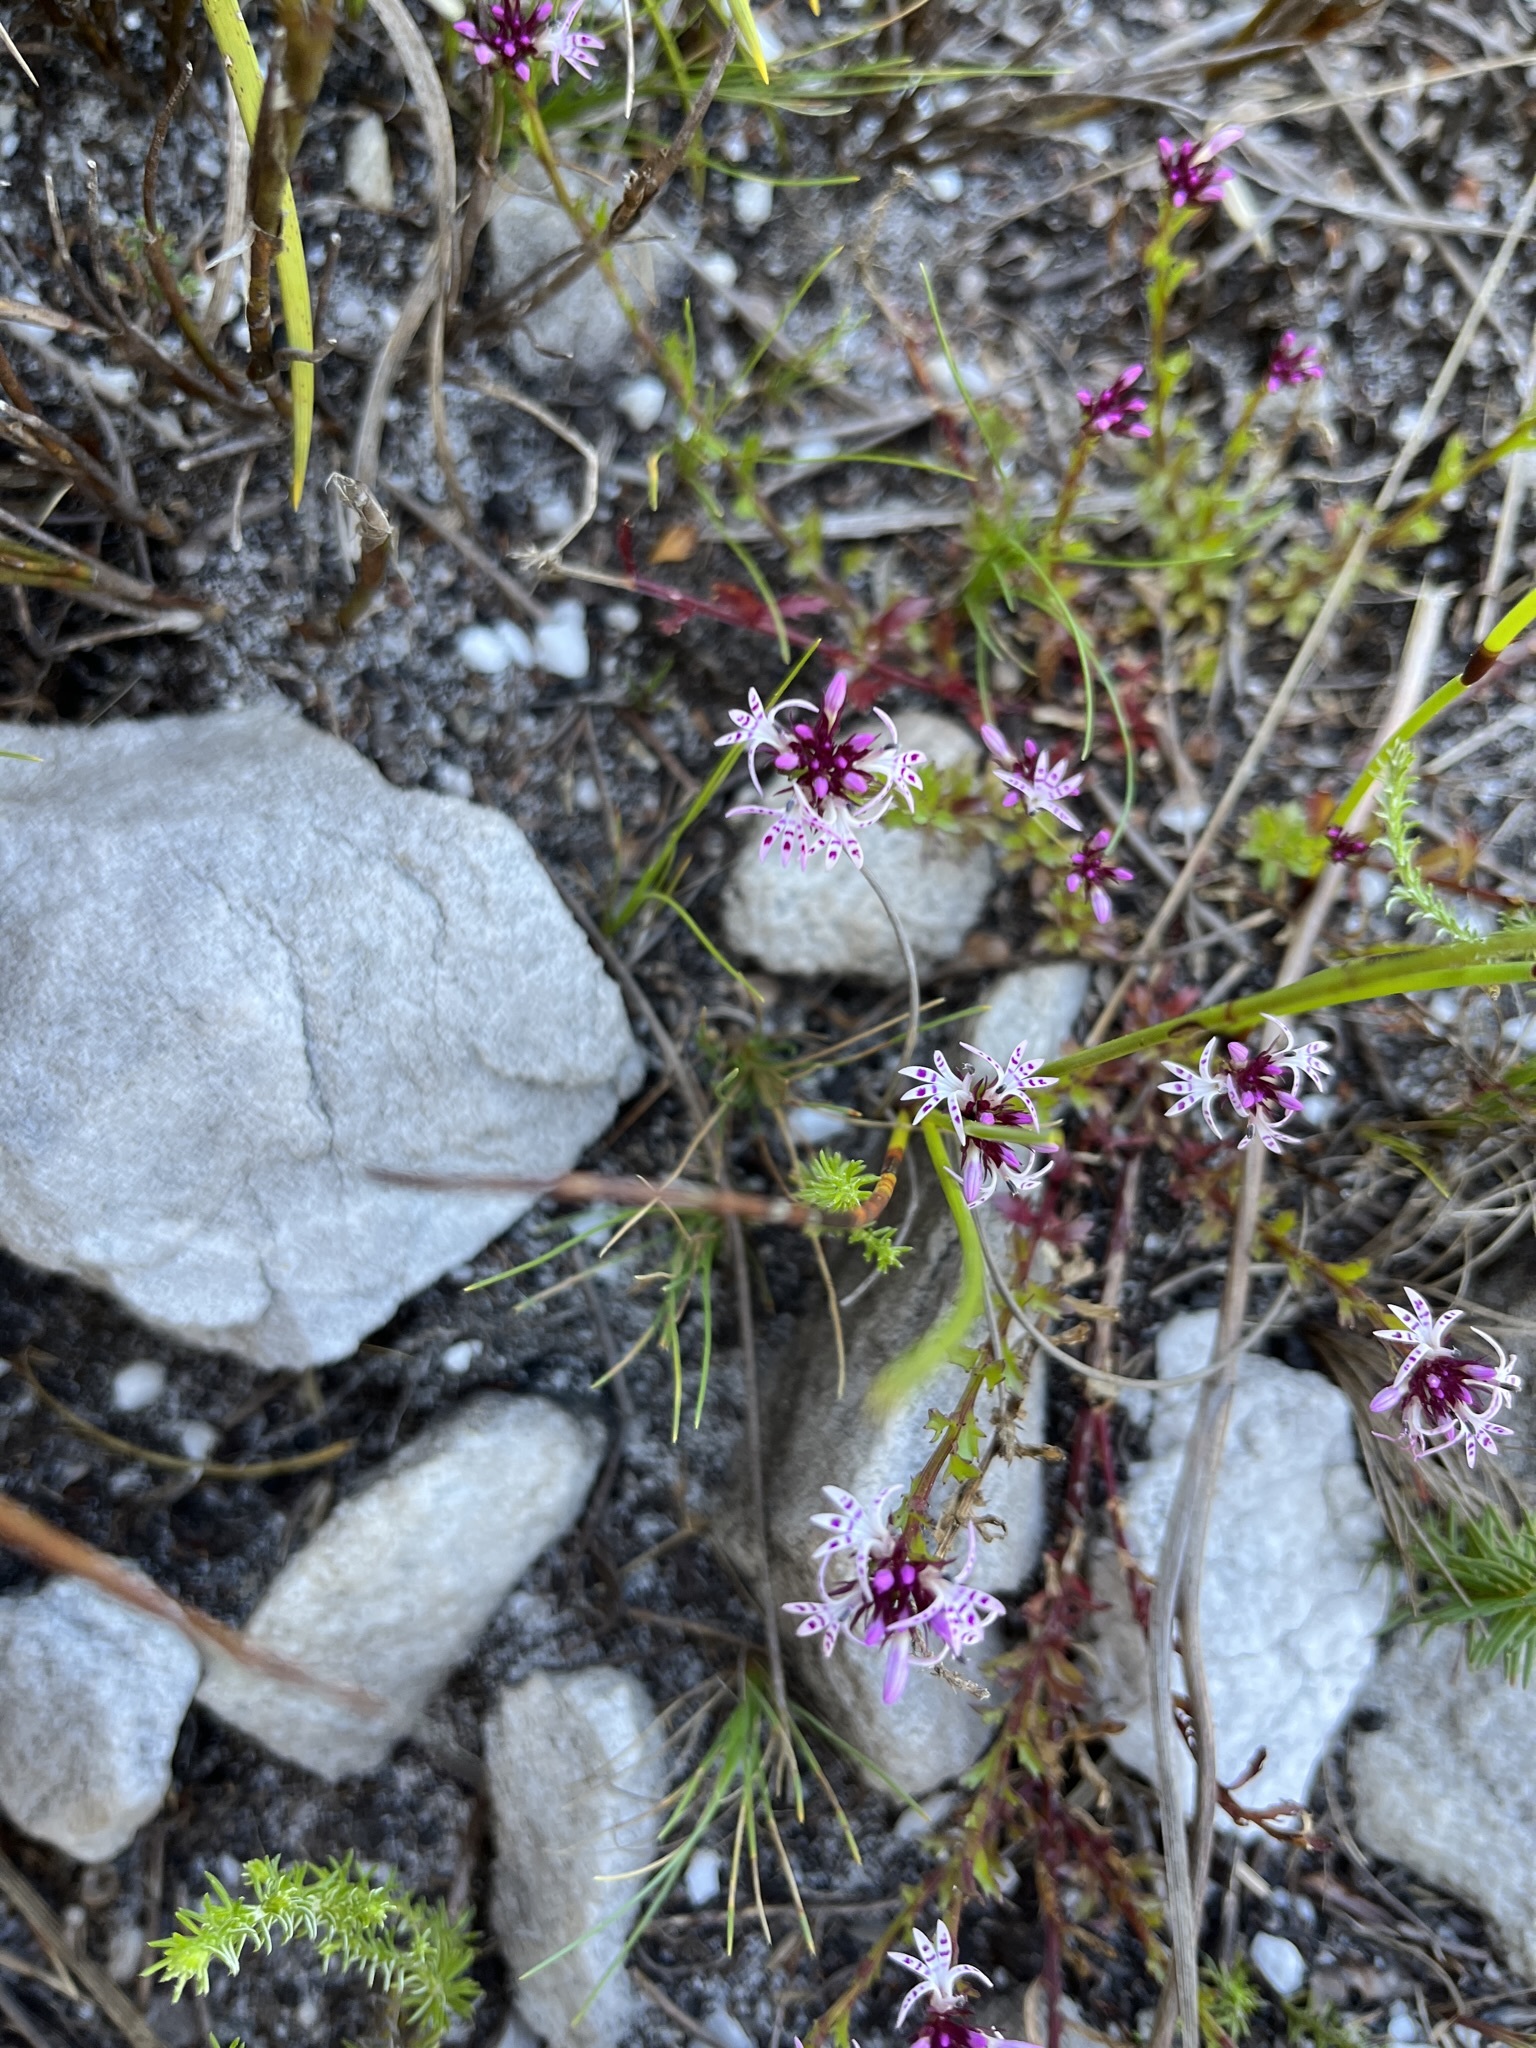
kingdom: Plantae
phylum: Tracheophyta
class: Magnoliopsida
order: Asterales
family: Campanulaceae
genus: Lobelia
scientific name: Lobelia jasionoides
